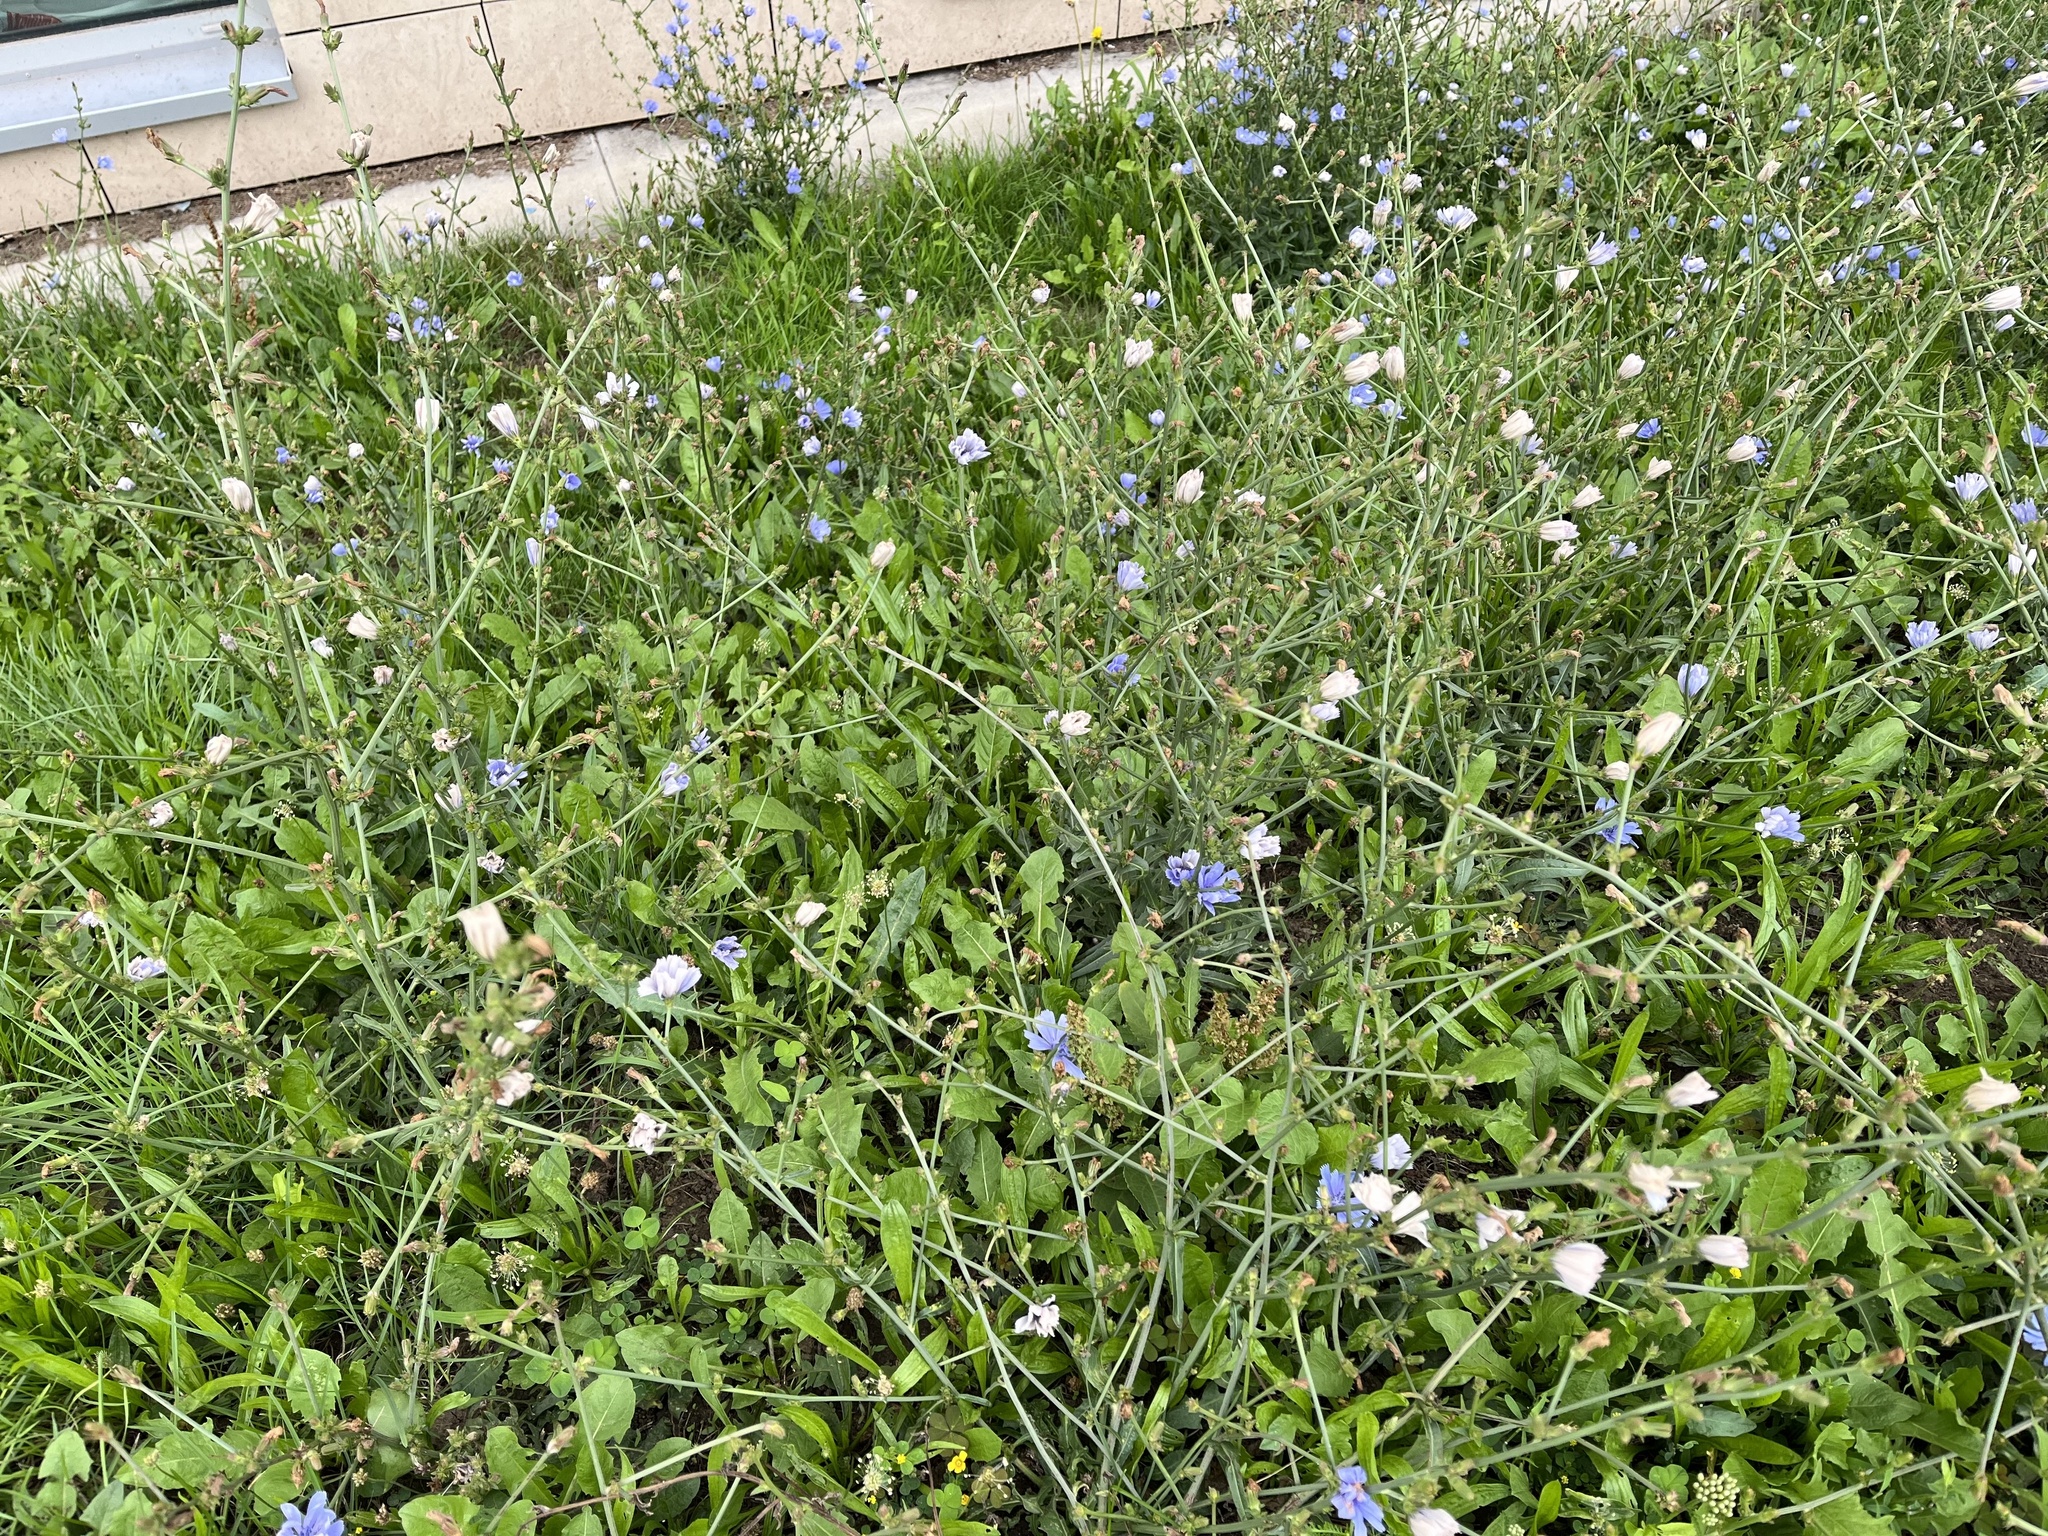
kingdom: Plantae
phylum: Tracheophyta
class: Magnoliopsida
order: Asterales
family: Asteraceae
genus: Cichorium
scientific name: Cichorium intybus
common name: Chicory
